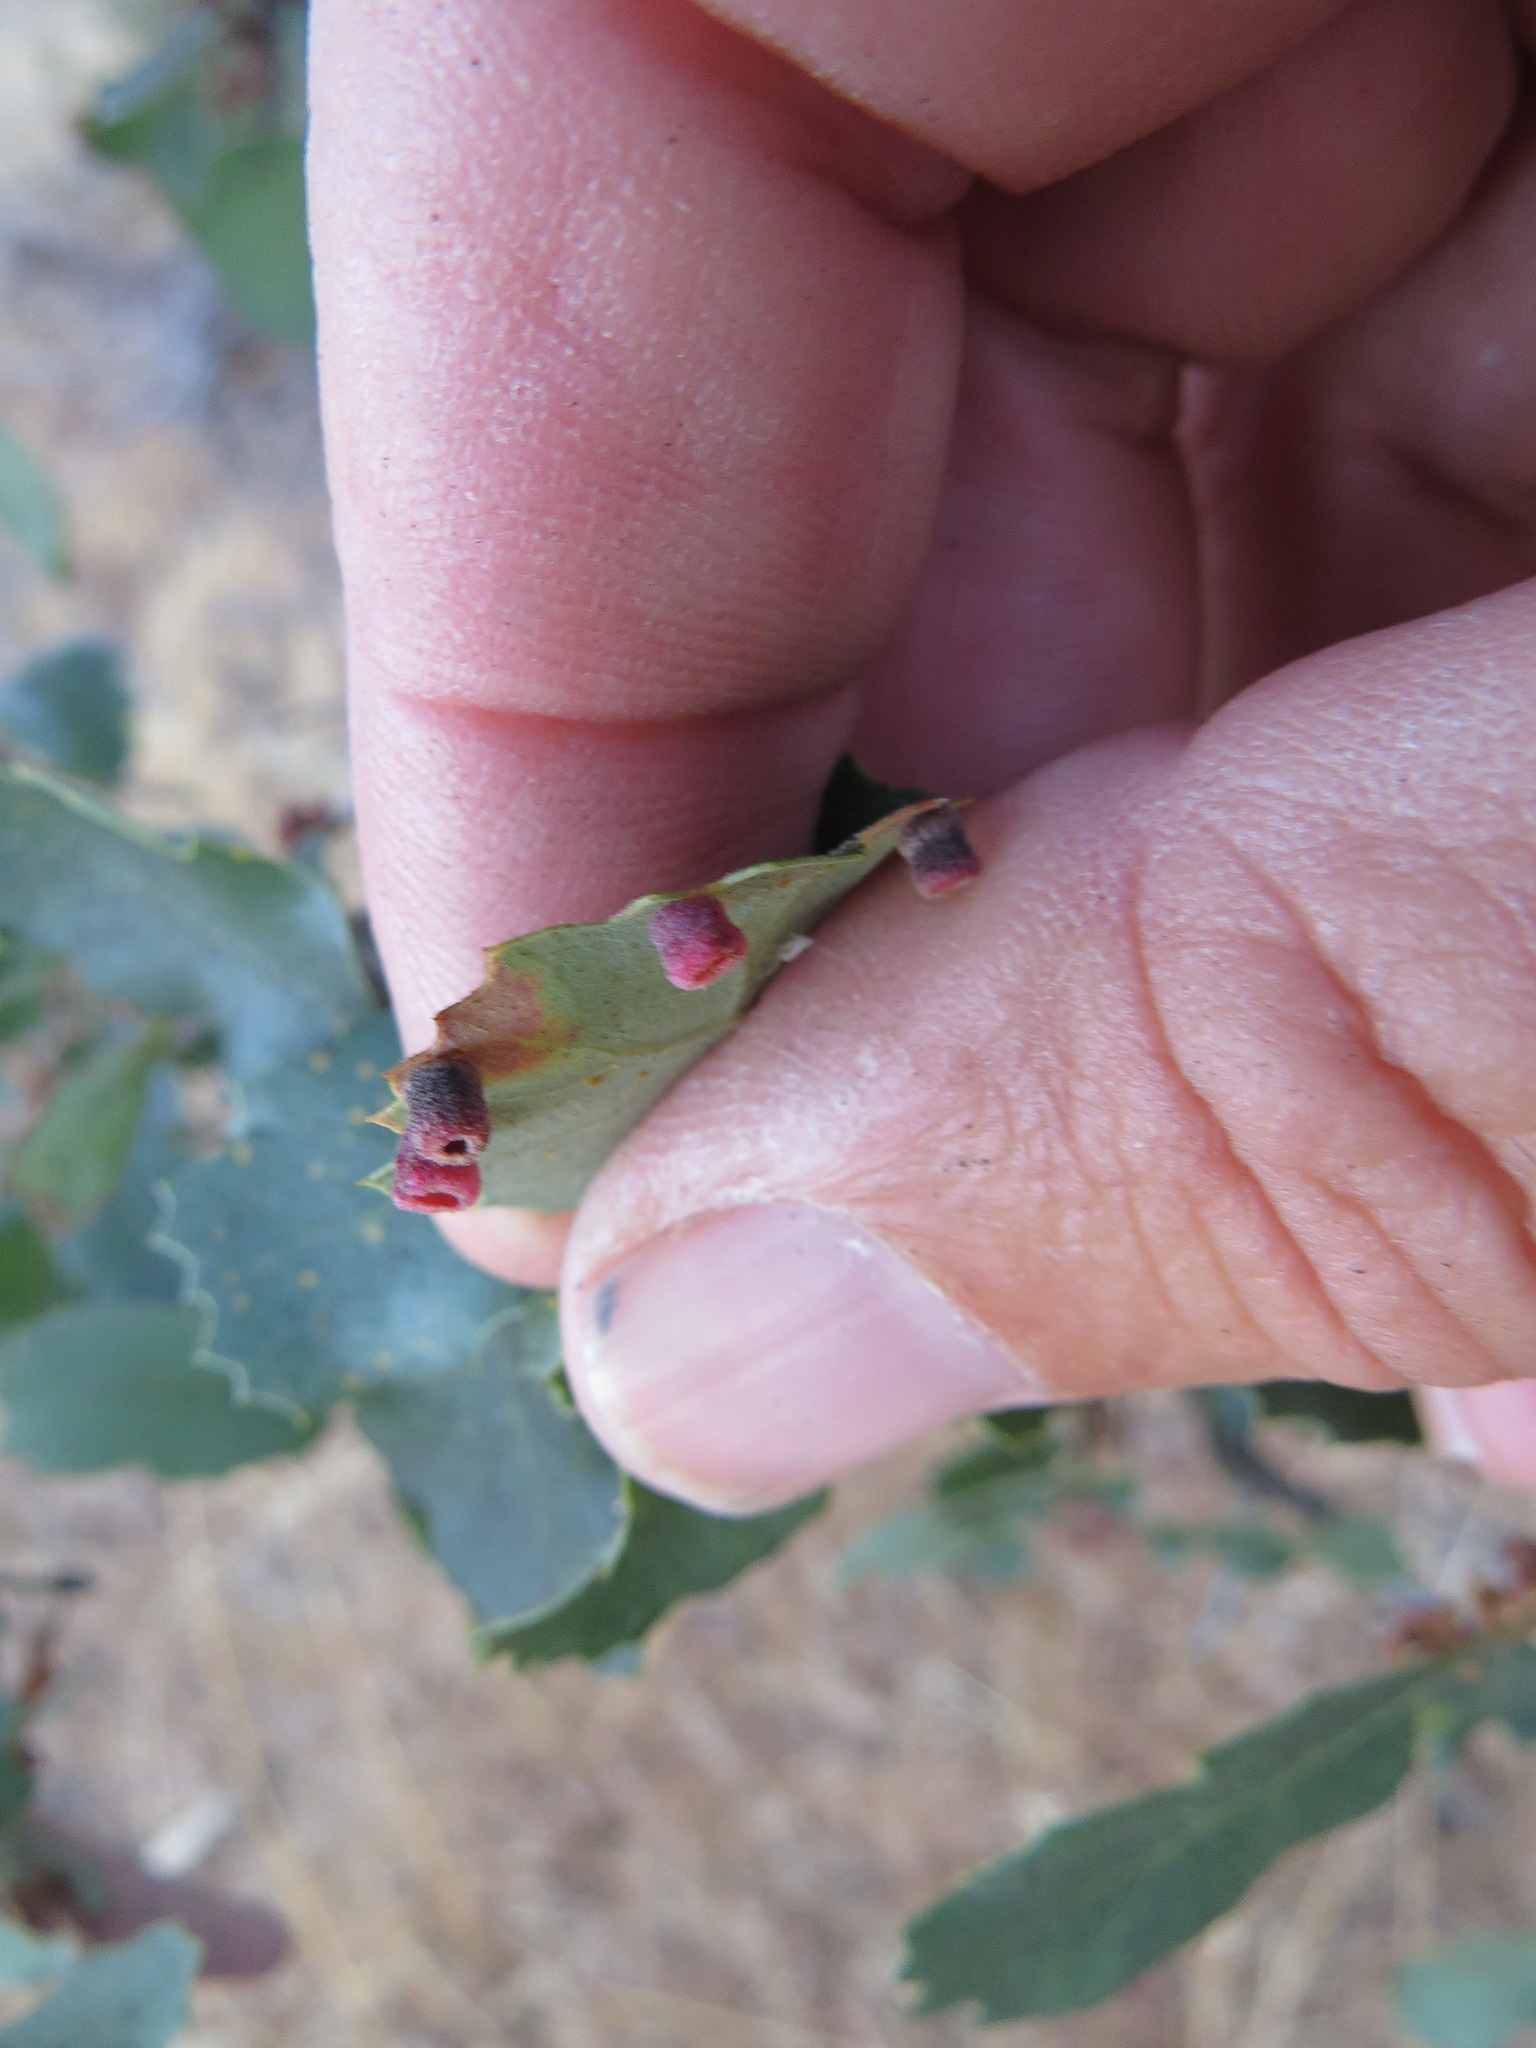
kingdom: Animalia
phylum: Arthropoda
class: Insecta
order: Hymenoptera
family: Cynipidae
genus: Phylloteras
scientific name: Phylloteras
